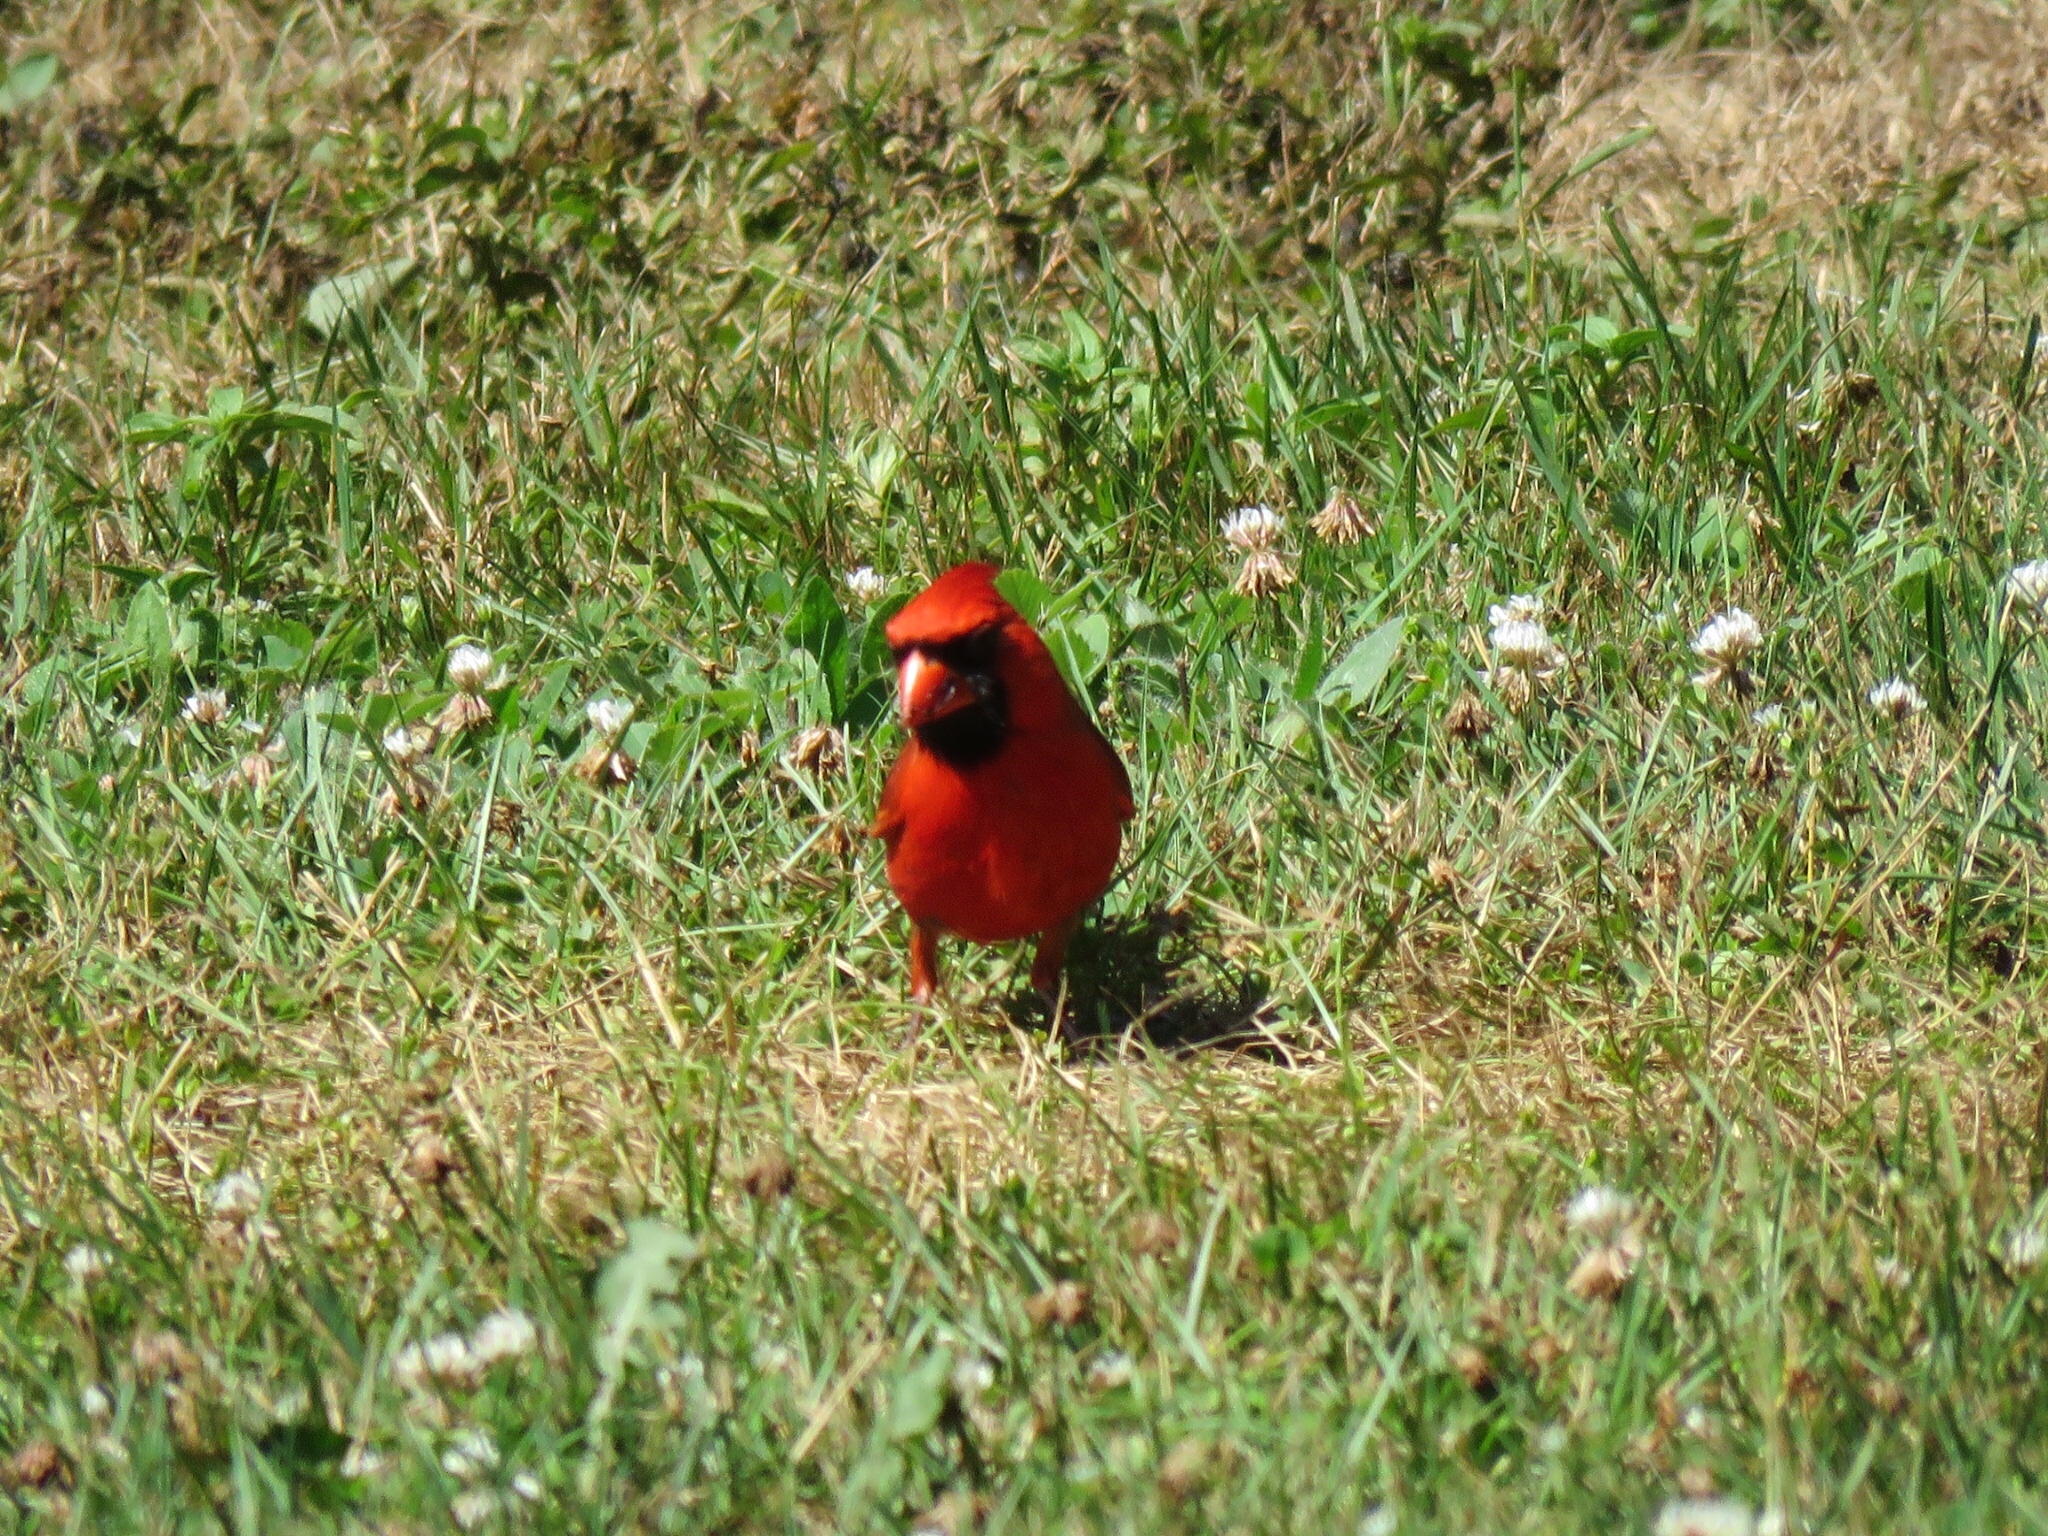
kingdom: Animalia
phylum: Chordata
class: Aves
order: Passeriformes
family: Cardinalidae
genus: Cardinalis
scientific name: Cardinalis cardinalis
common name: Northern cardinal
